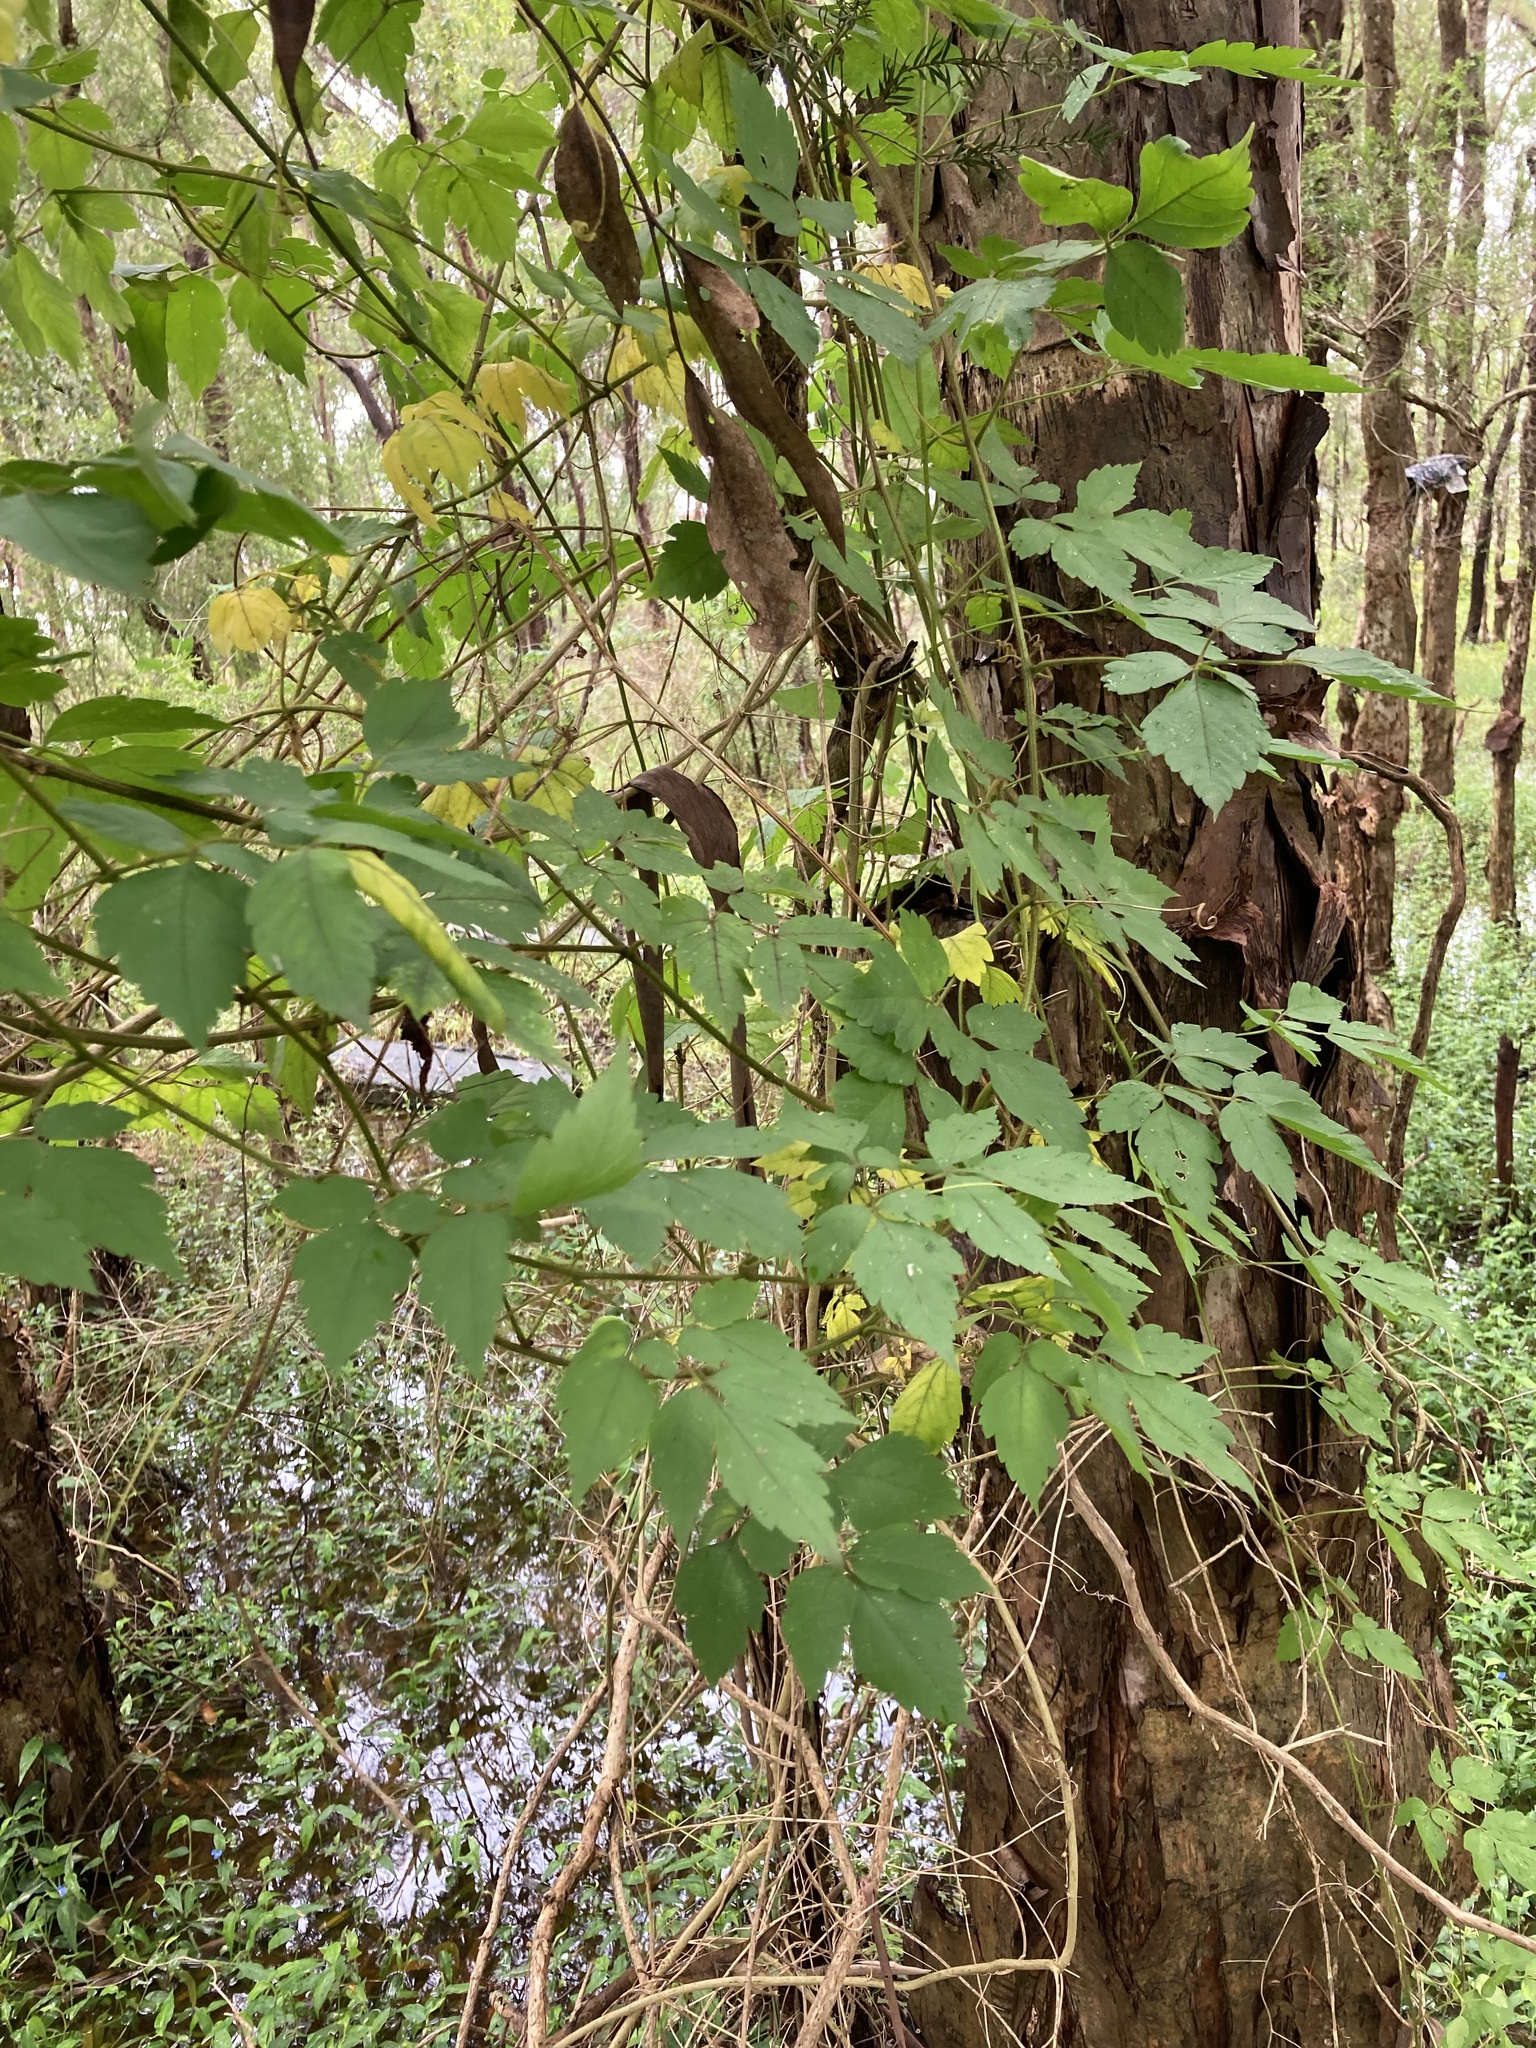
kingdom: Plantae
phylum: Tracheophyta
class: Magnoliopsida
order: Sapindales
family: Sapindaceae
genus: Cardiospermum
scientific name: Cardiospermum grandiflorum
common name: Balloon vine
